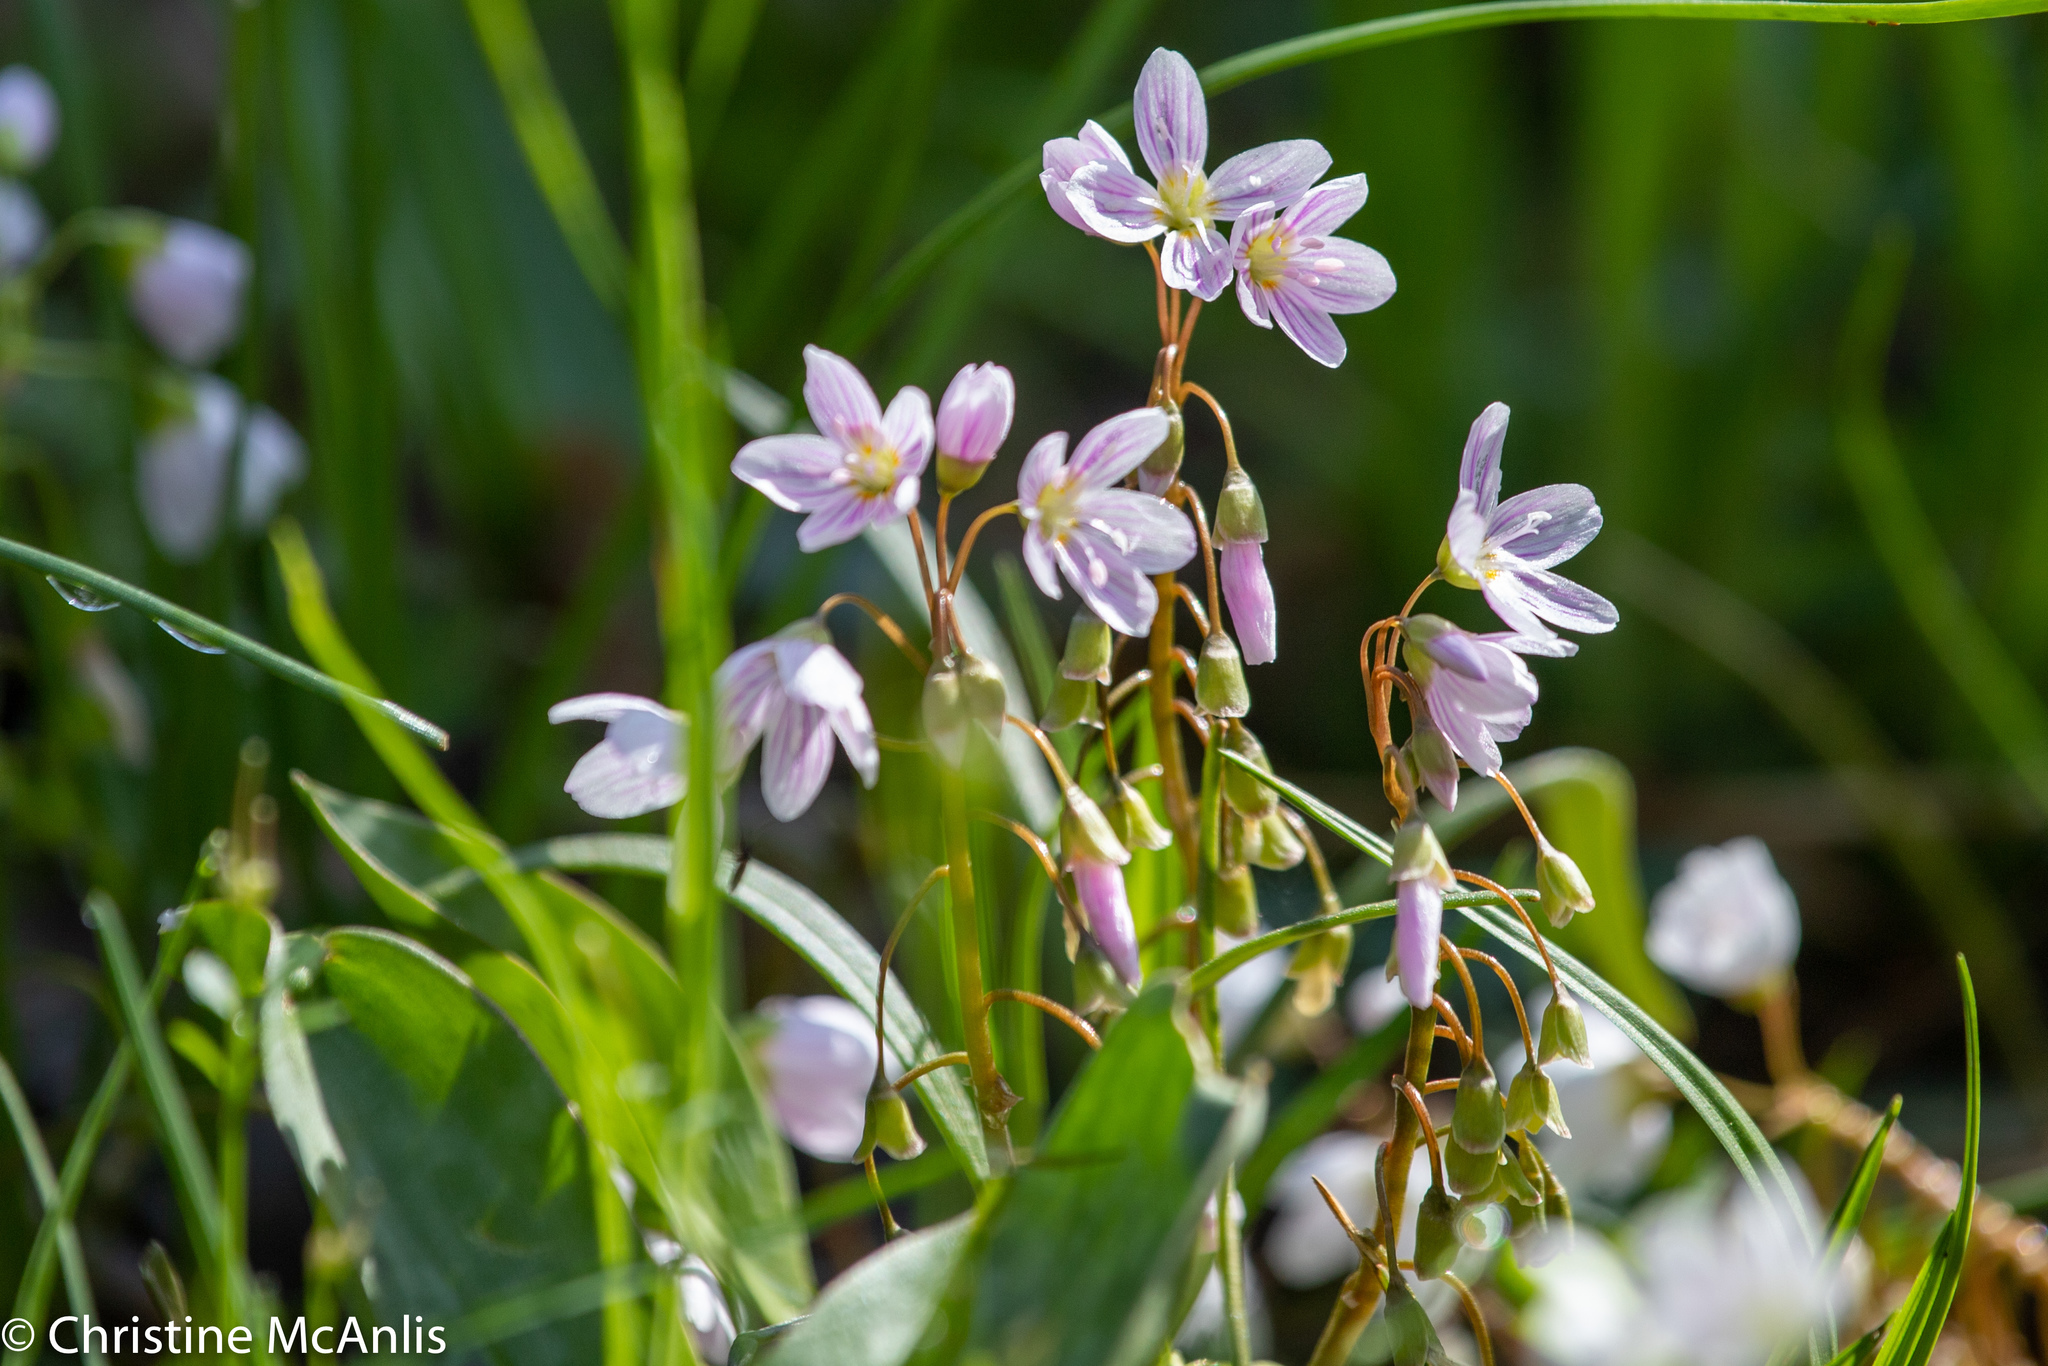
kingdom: Plantae
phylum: Tracheophyta
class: Magnoliopsida
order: Caryophyllales
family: Montiaceae
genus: Claytonia
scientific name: Claytonia virginica
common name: Virginia springbeauty
